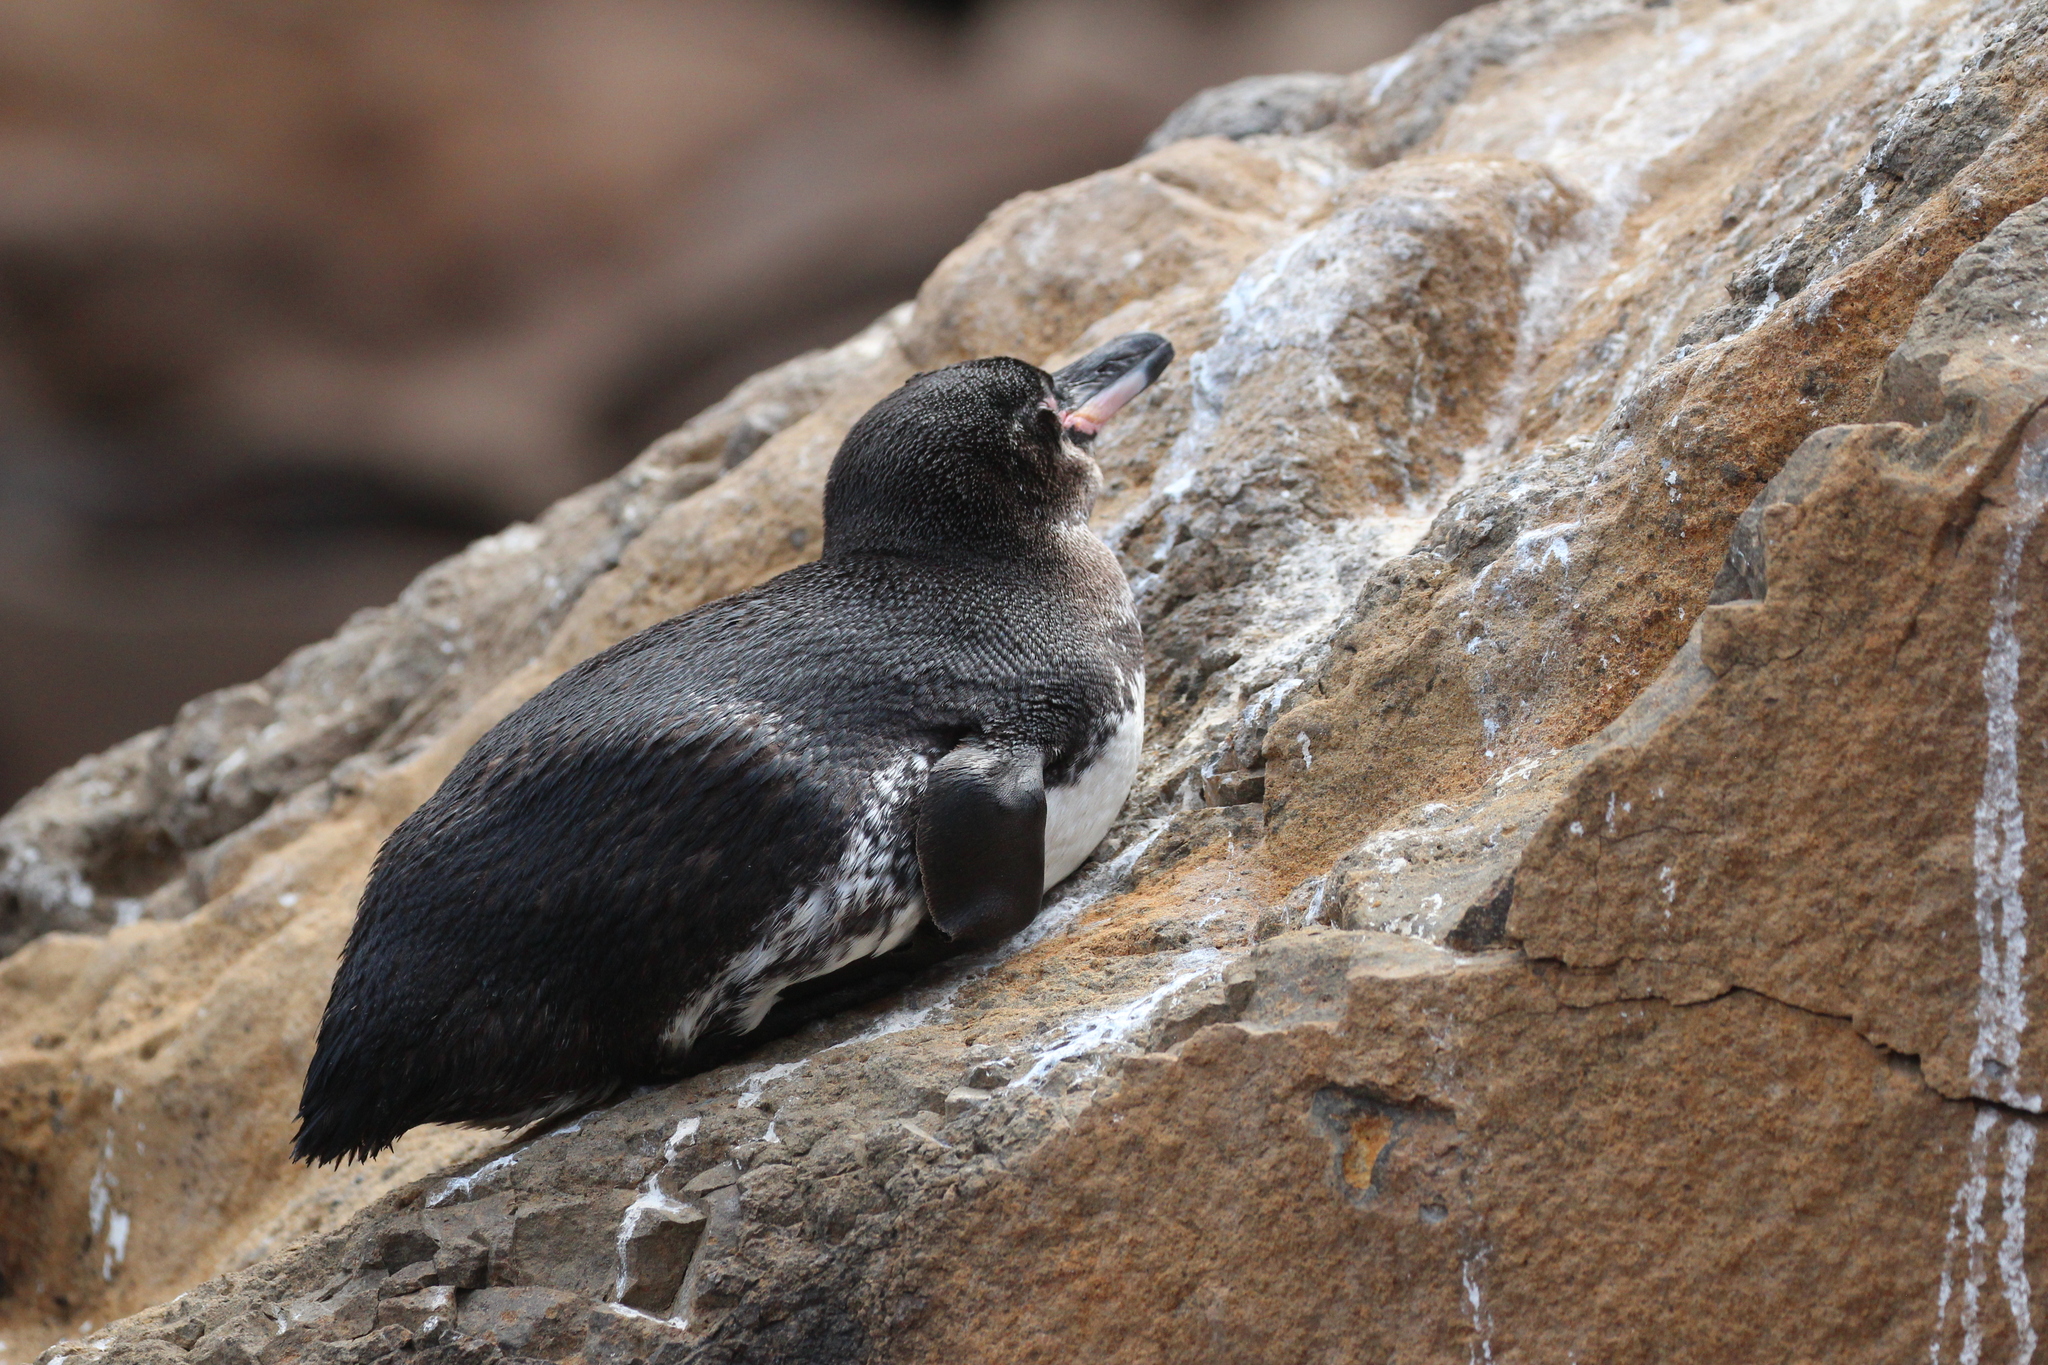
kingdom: Animalia
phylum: Chordata
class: Aves
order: Sphenisciformes
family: Spheniscidae
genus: Spheniscus
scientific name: Spheniscus mendiculus
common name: Galapagos penguin
